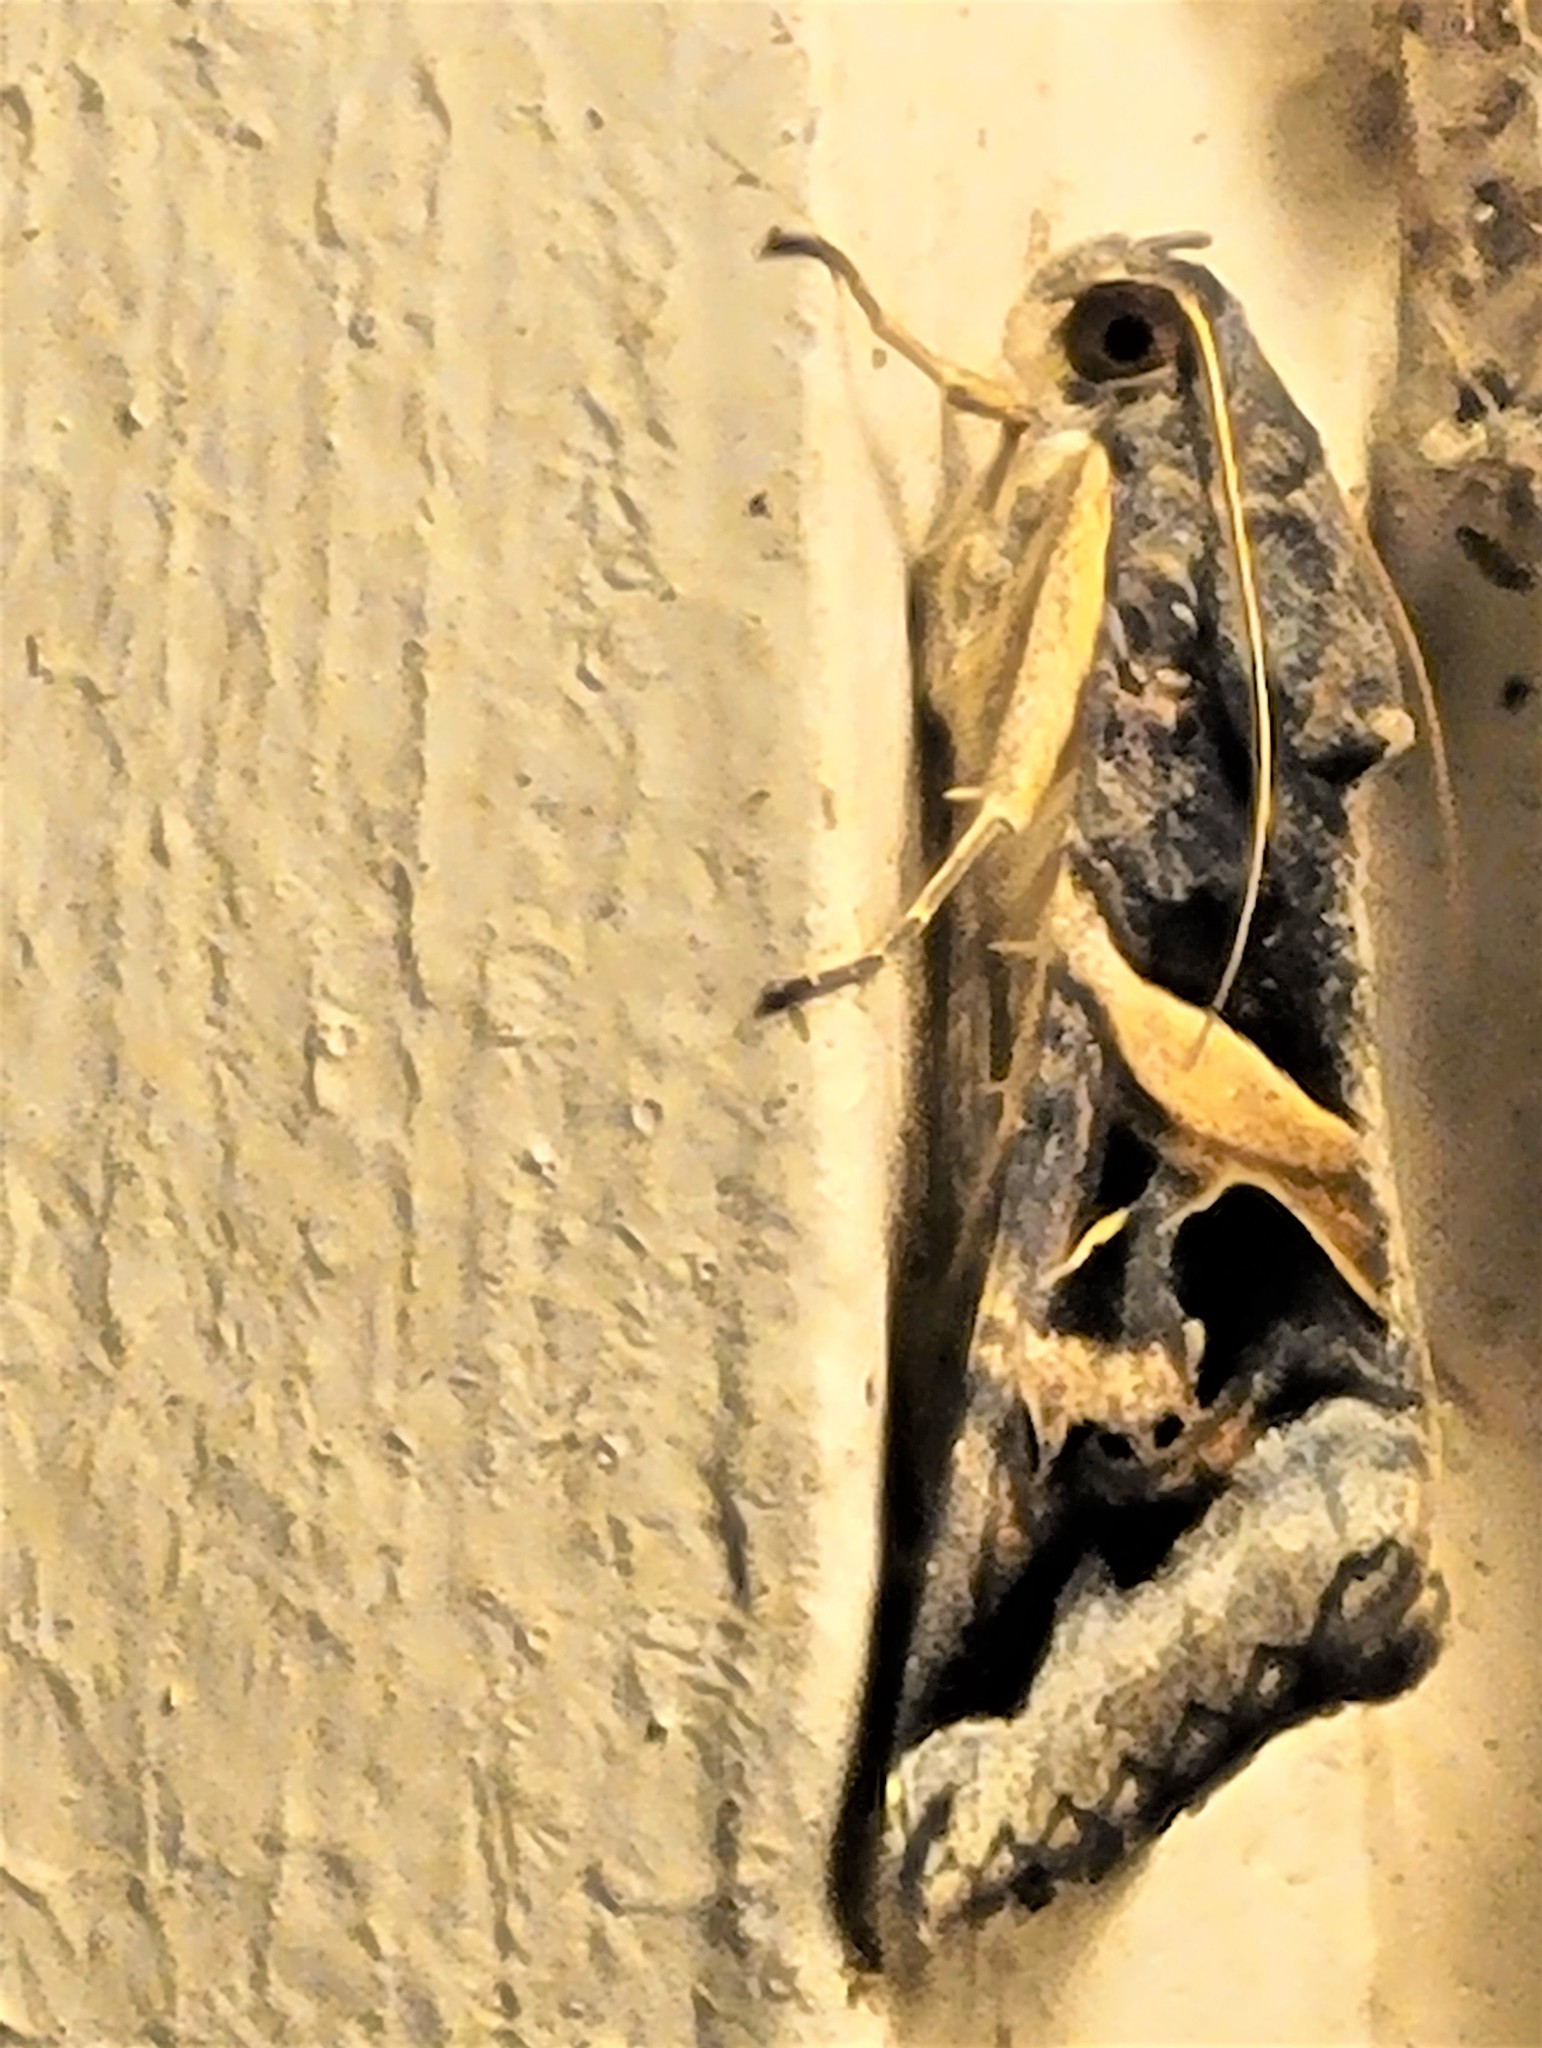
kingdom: Animalia
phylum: Arthropoda
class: Insecta
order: Lepidoptera
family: Erebidae
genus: Melipotis
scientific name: Melipotis indomita
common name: Moth
